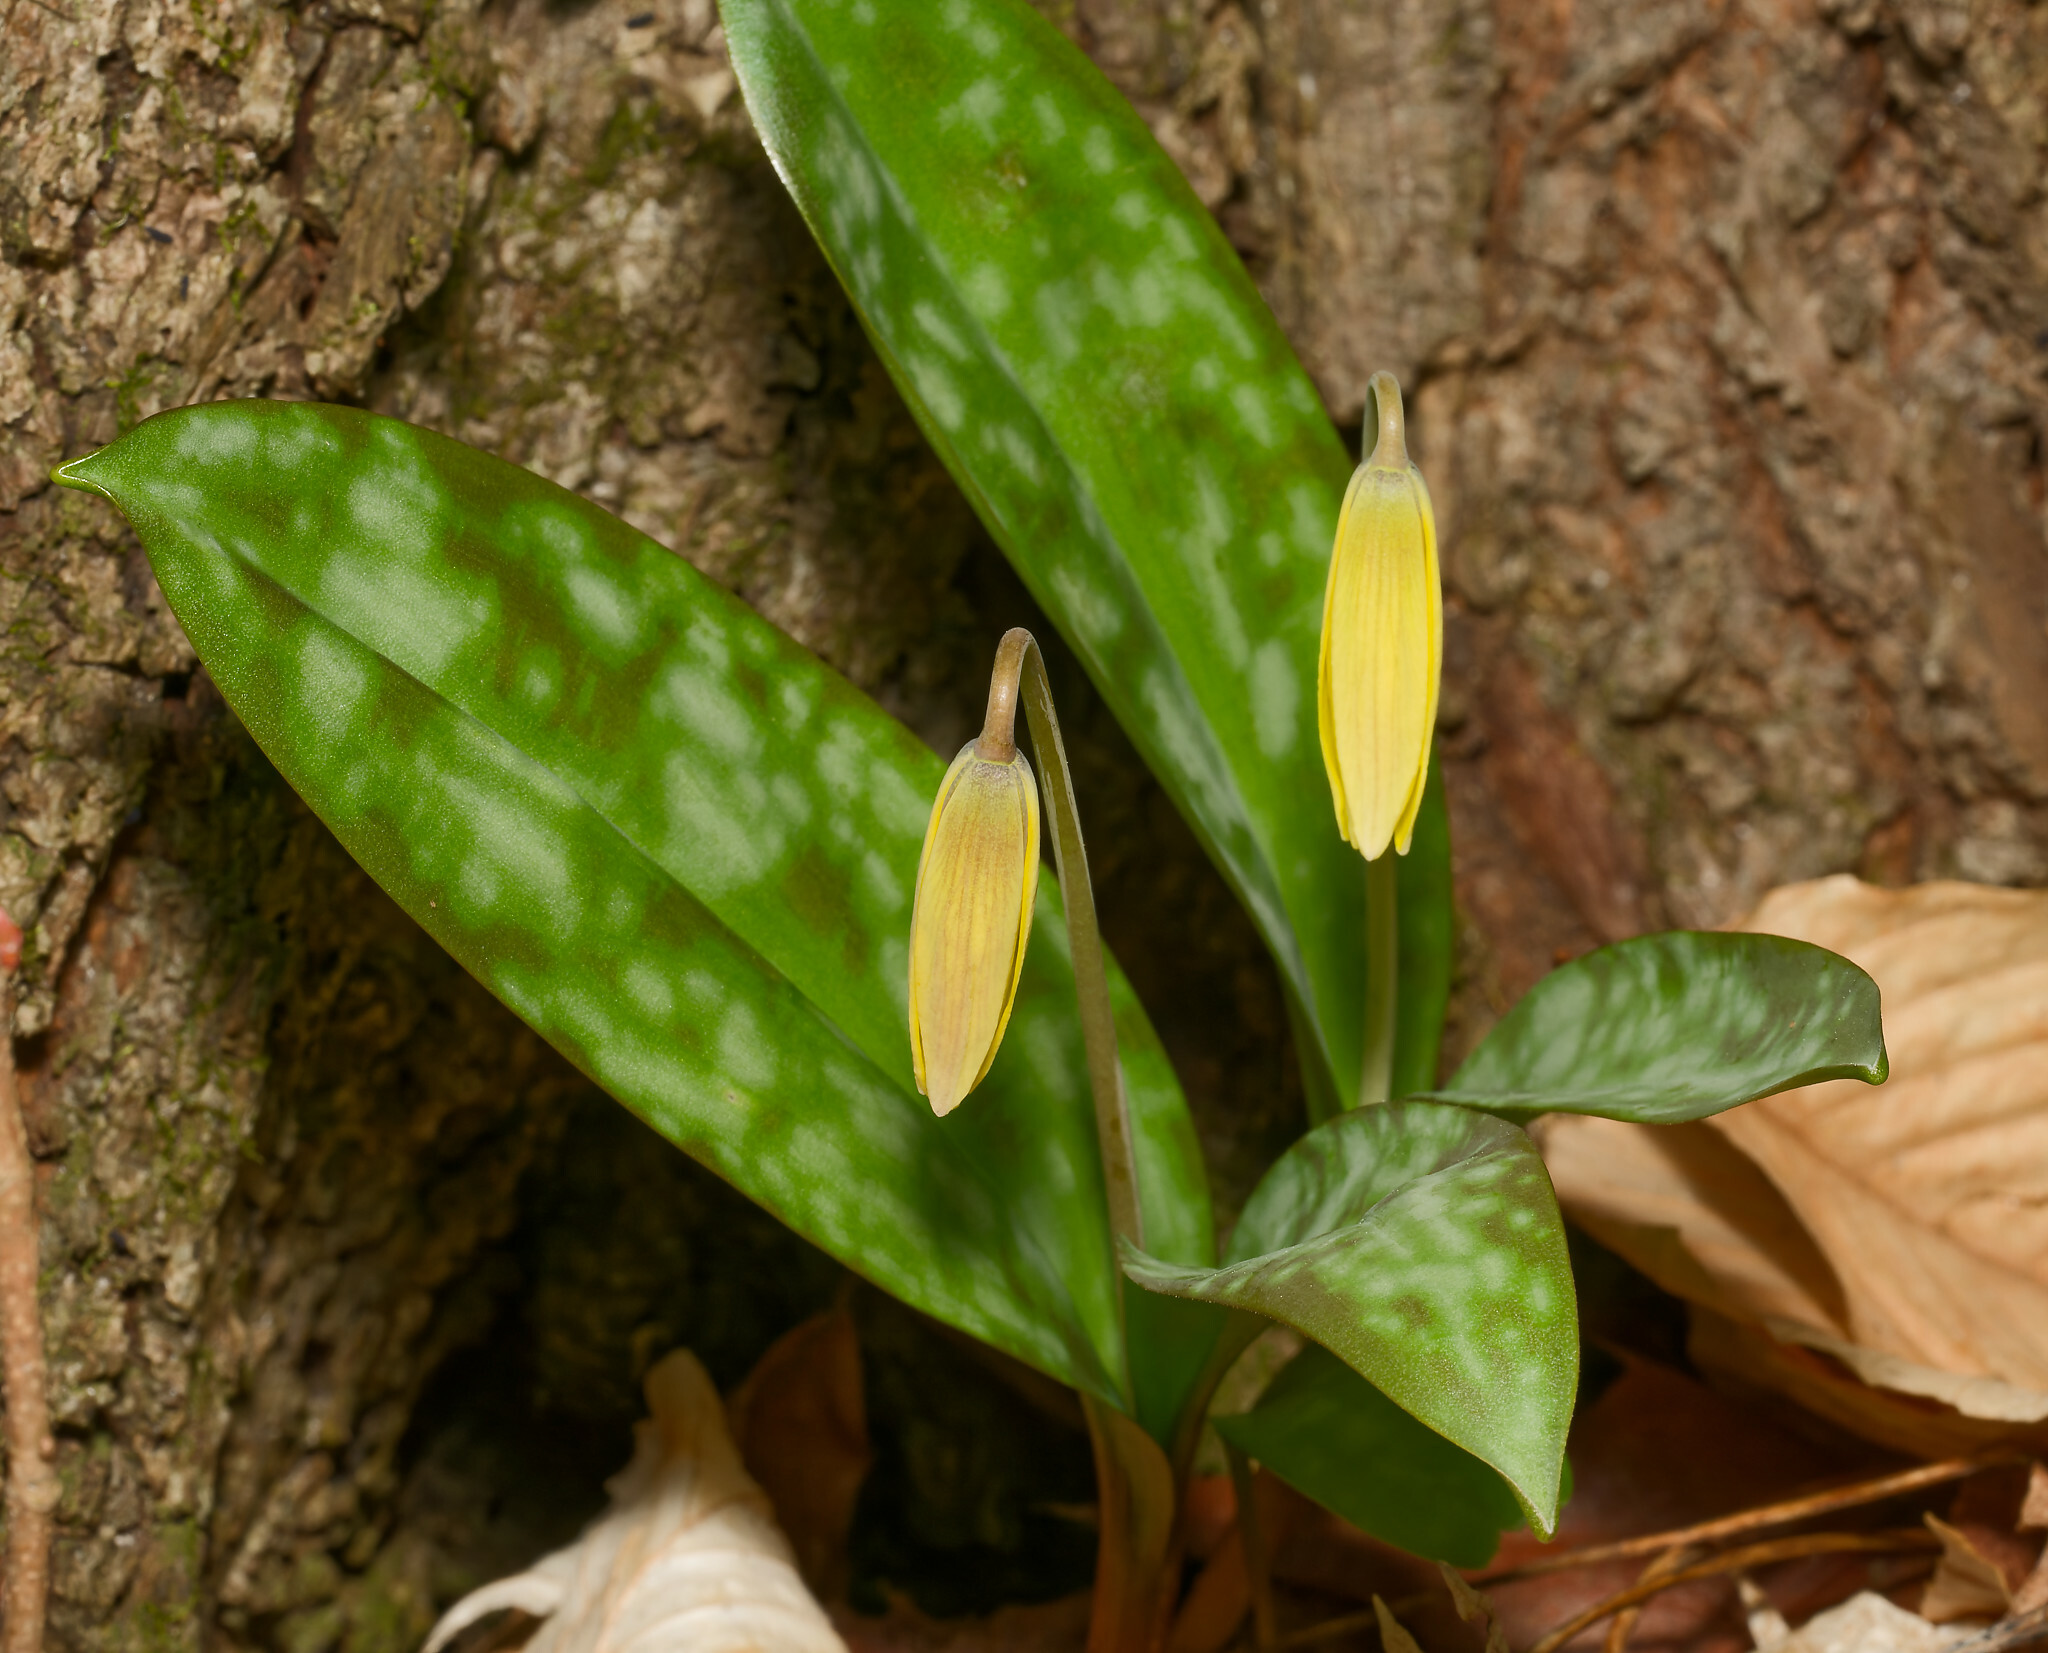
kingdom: Plantae
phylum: Tracheophyta
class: Liliopsida
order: Liliales
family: Liliaceae
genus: Erythronium
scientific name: Erythronium americanum
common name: Yellow adder's-tongue
